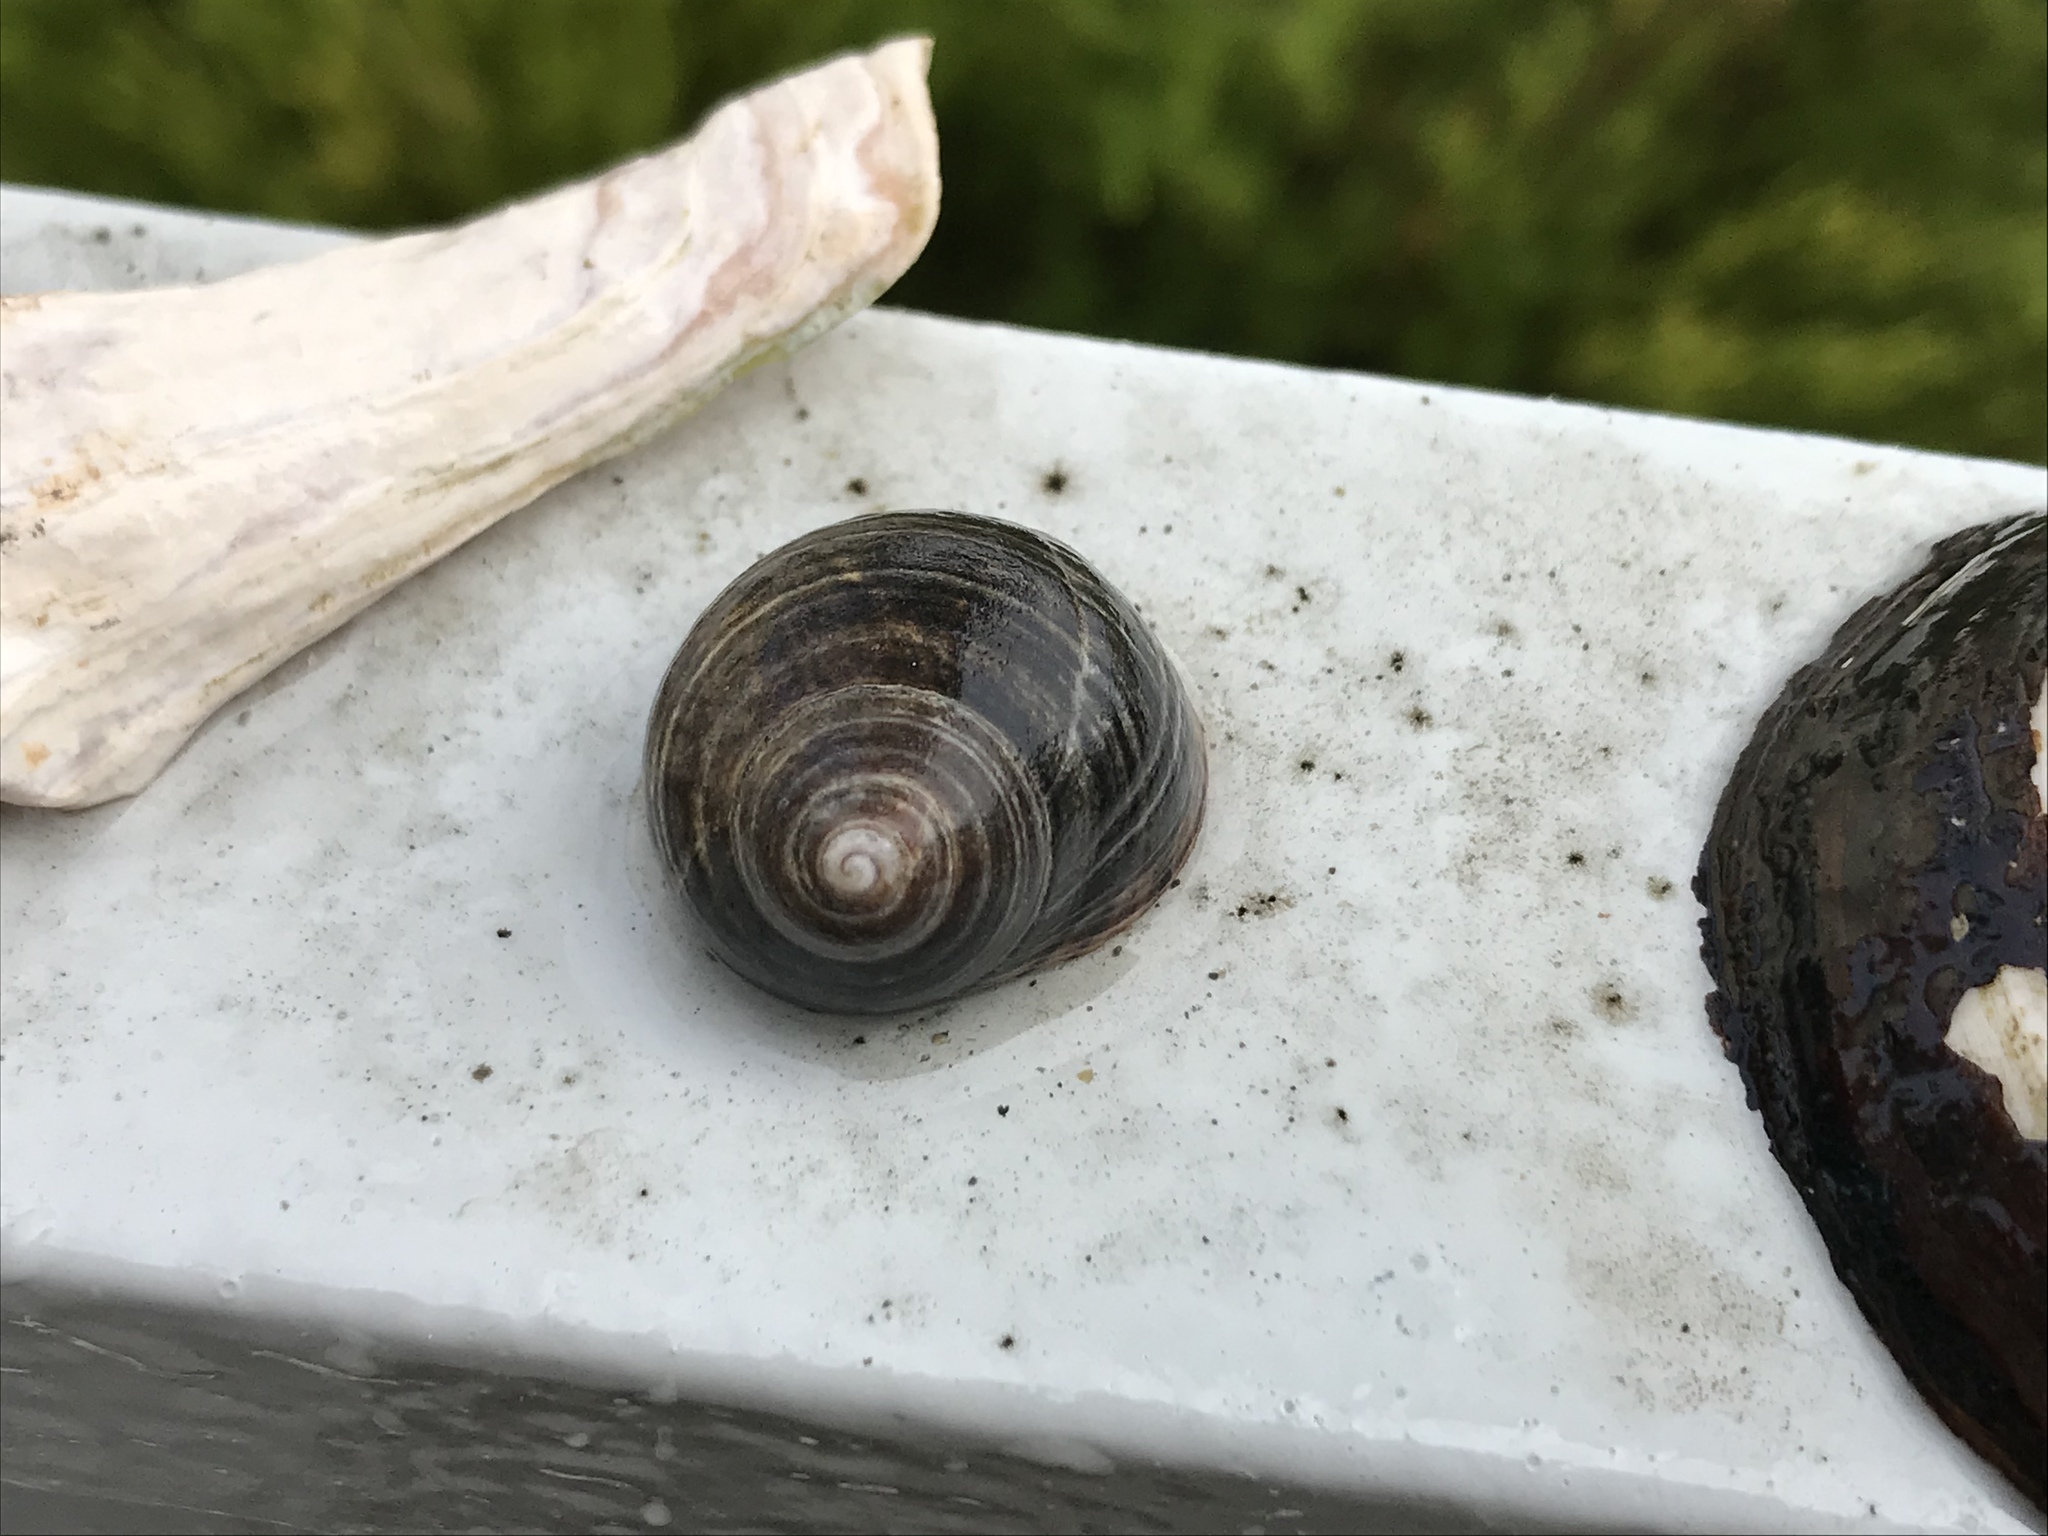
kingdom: Animalia
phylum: Mollusca
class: Gastropoda
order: Littorinimorpha
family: Littorinidae
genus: Littorina
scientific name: Littorina littorea
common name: Common periwinkle
